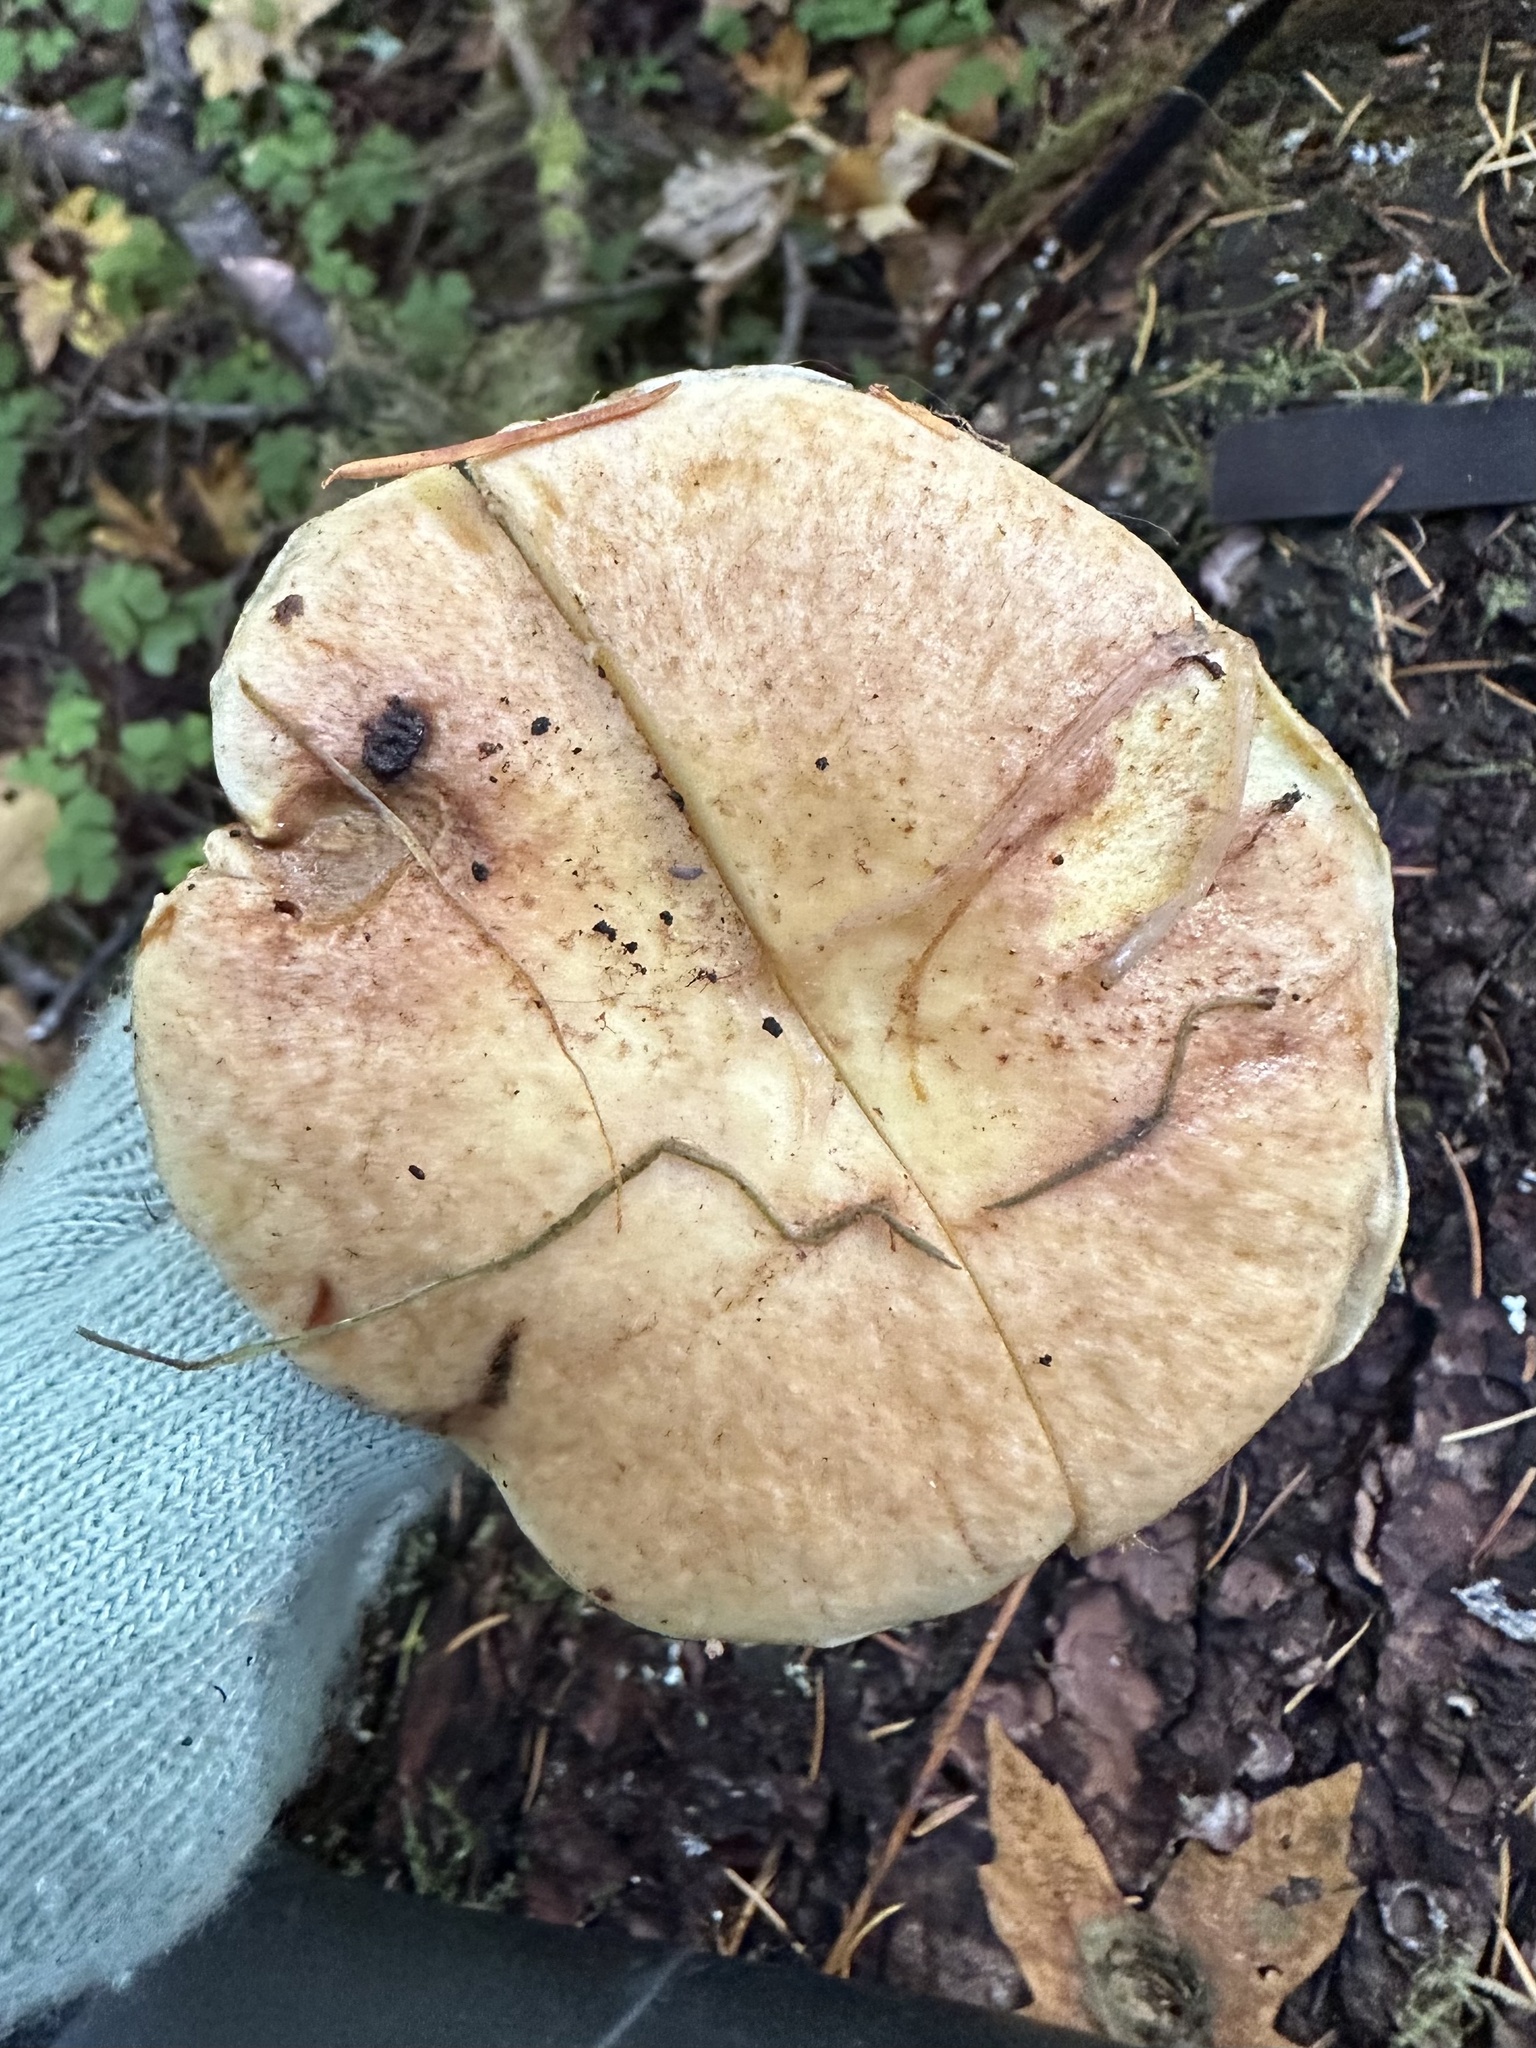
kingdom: Fungi
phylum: Basidiomycota
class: Agaricomycetes
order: Boletales
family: Suillaceae
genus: Suillus
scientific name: Suillus caerulescens
